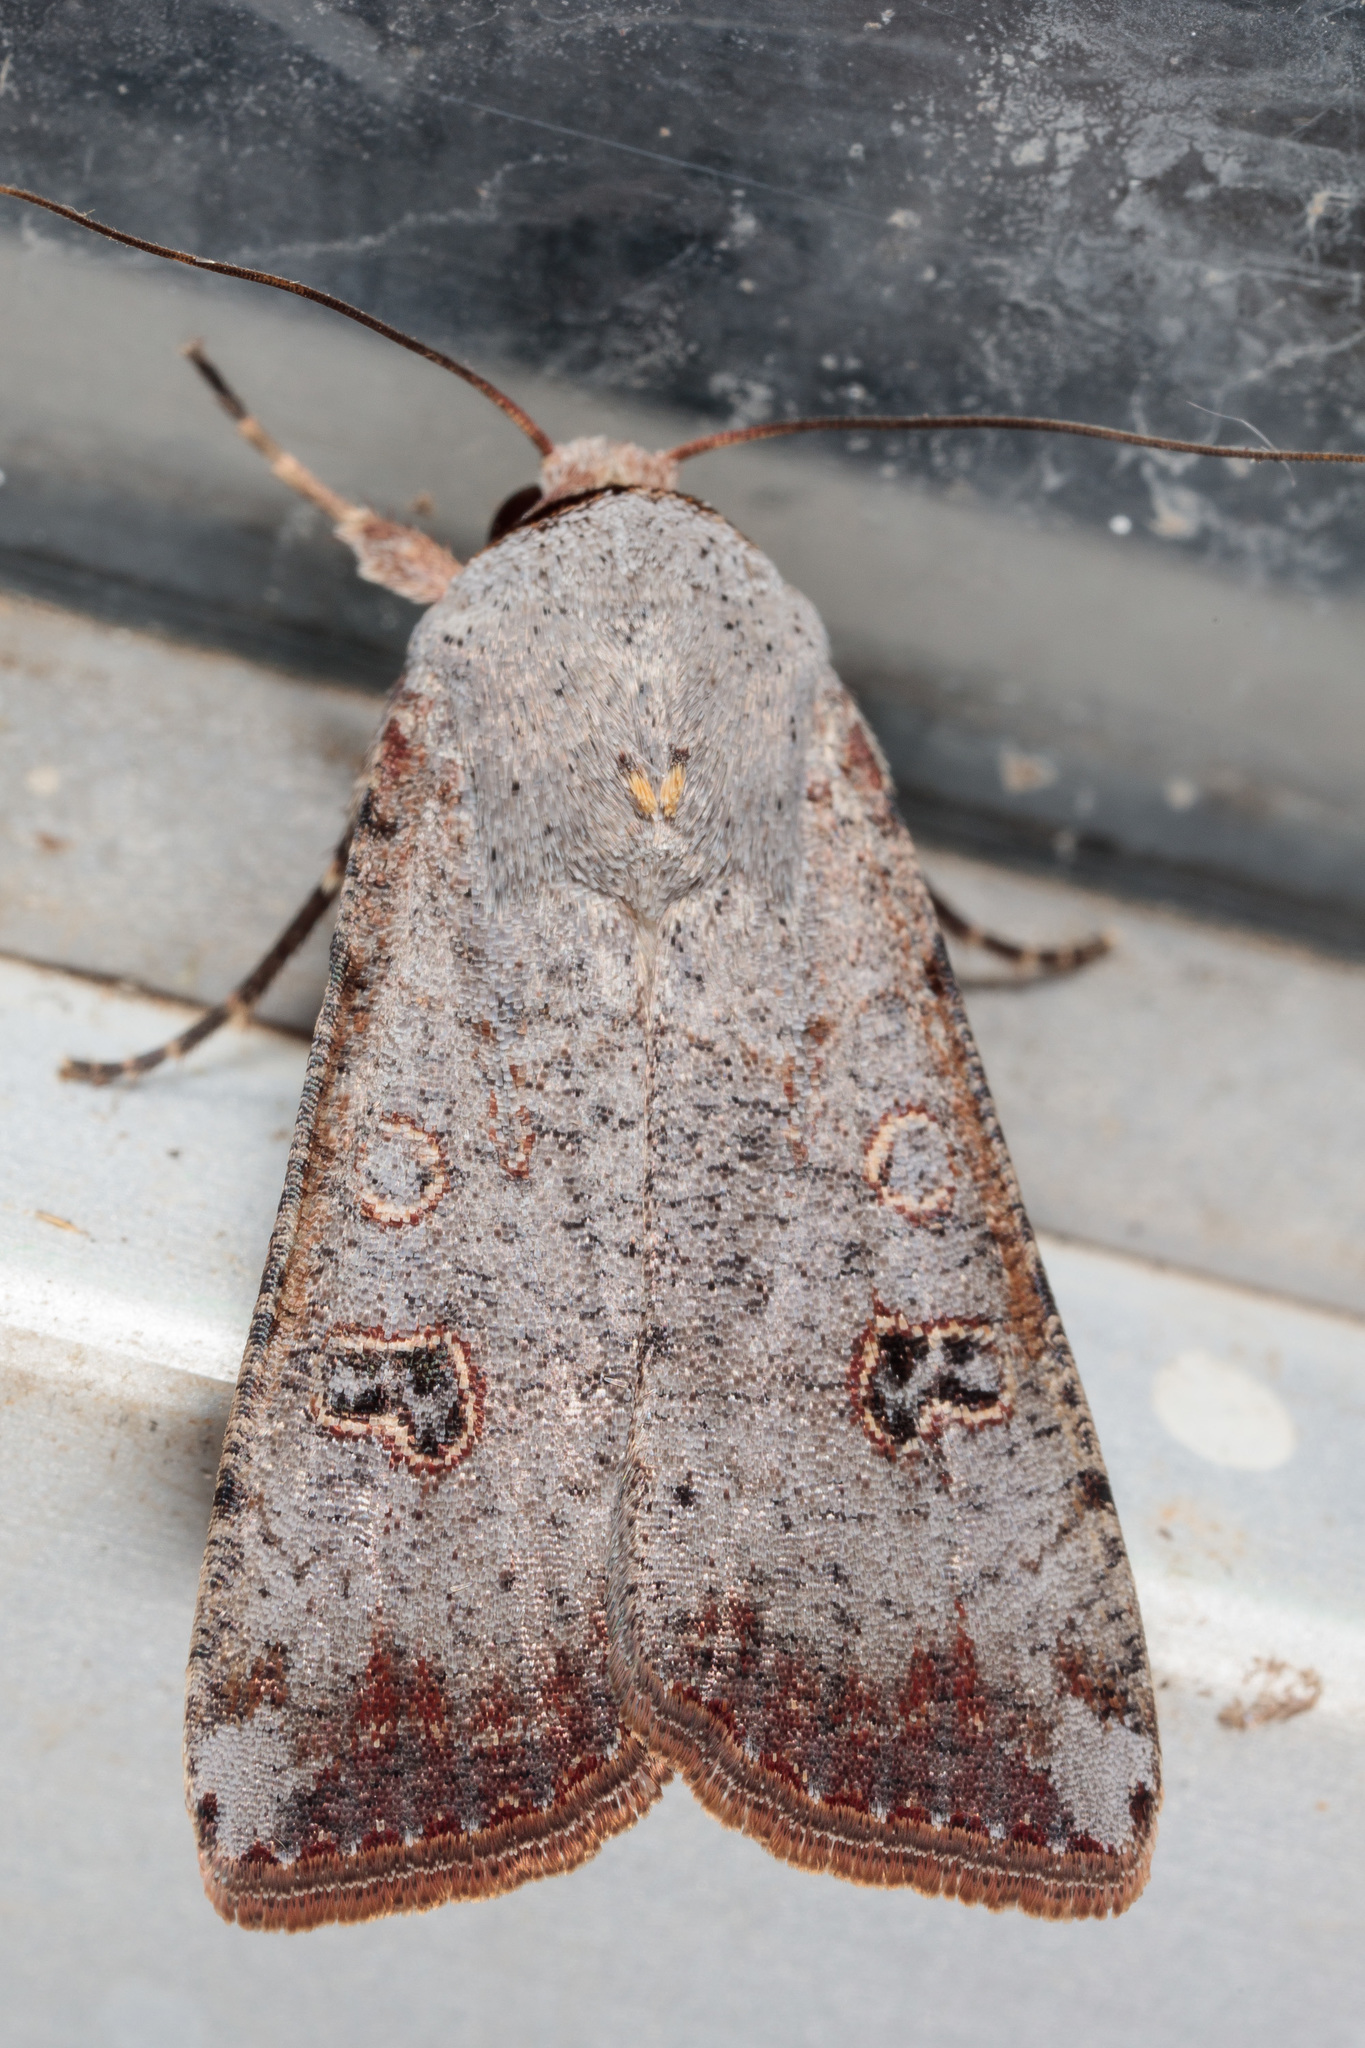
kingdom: Animalia
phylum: Arthropoda
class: Insecta
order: Lepidoptera
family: Noctuidae
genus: Anicla
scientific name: Anicla infecta
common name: Green cutworm
